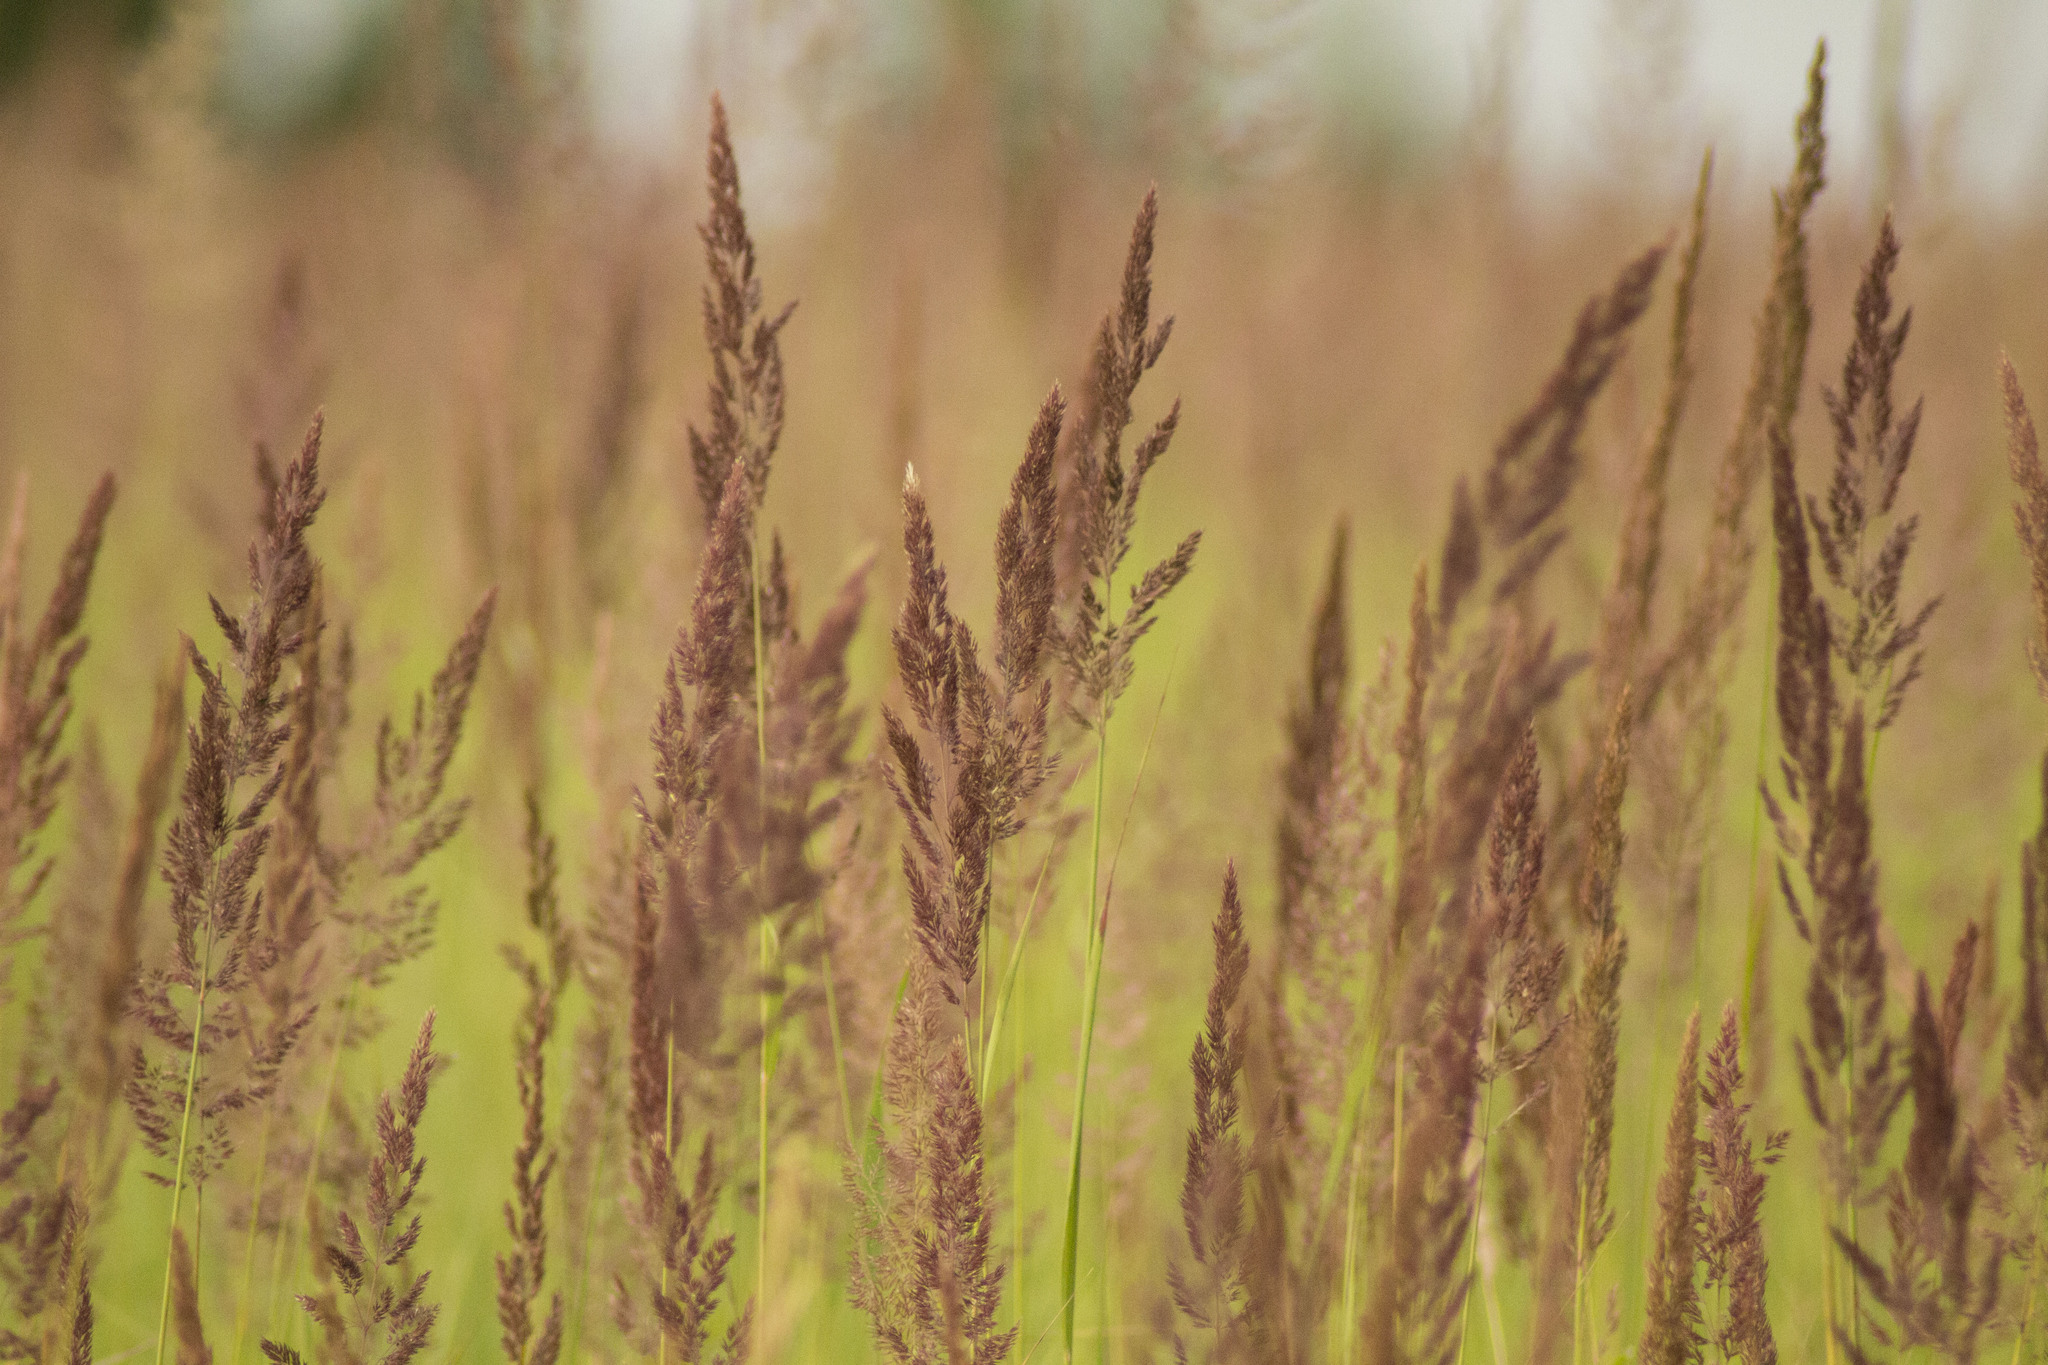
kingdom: Plantae
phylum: Tracheophyta
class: Liliopsida
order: Poales
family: Poaceae
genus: Calamagrostis
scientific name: Calamagrostis epigejos
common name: Wood small-reed
